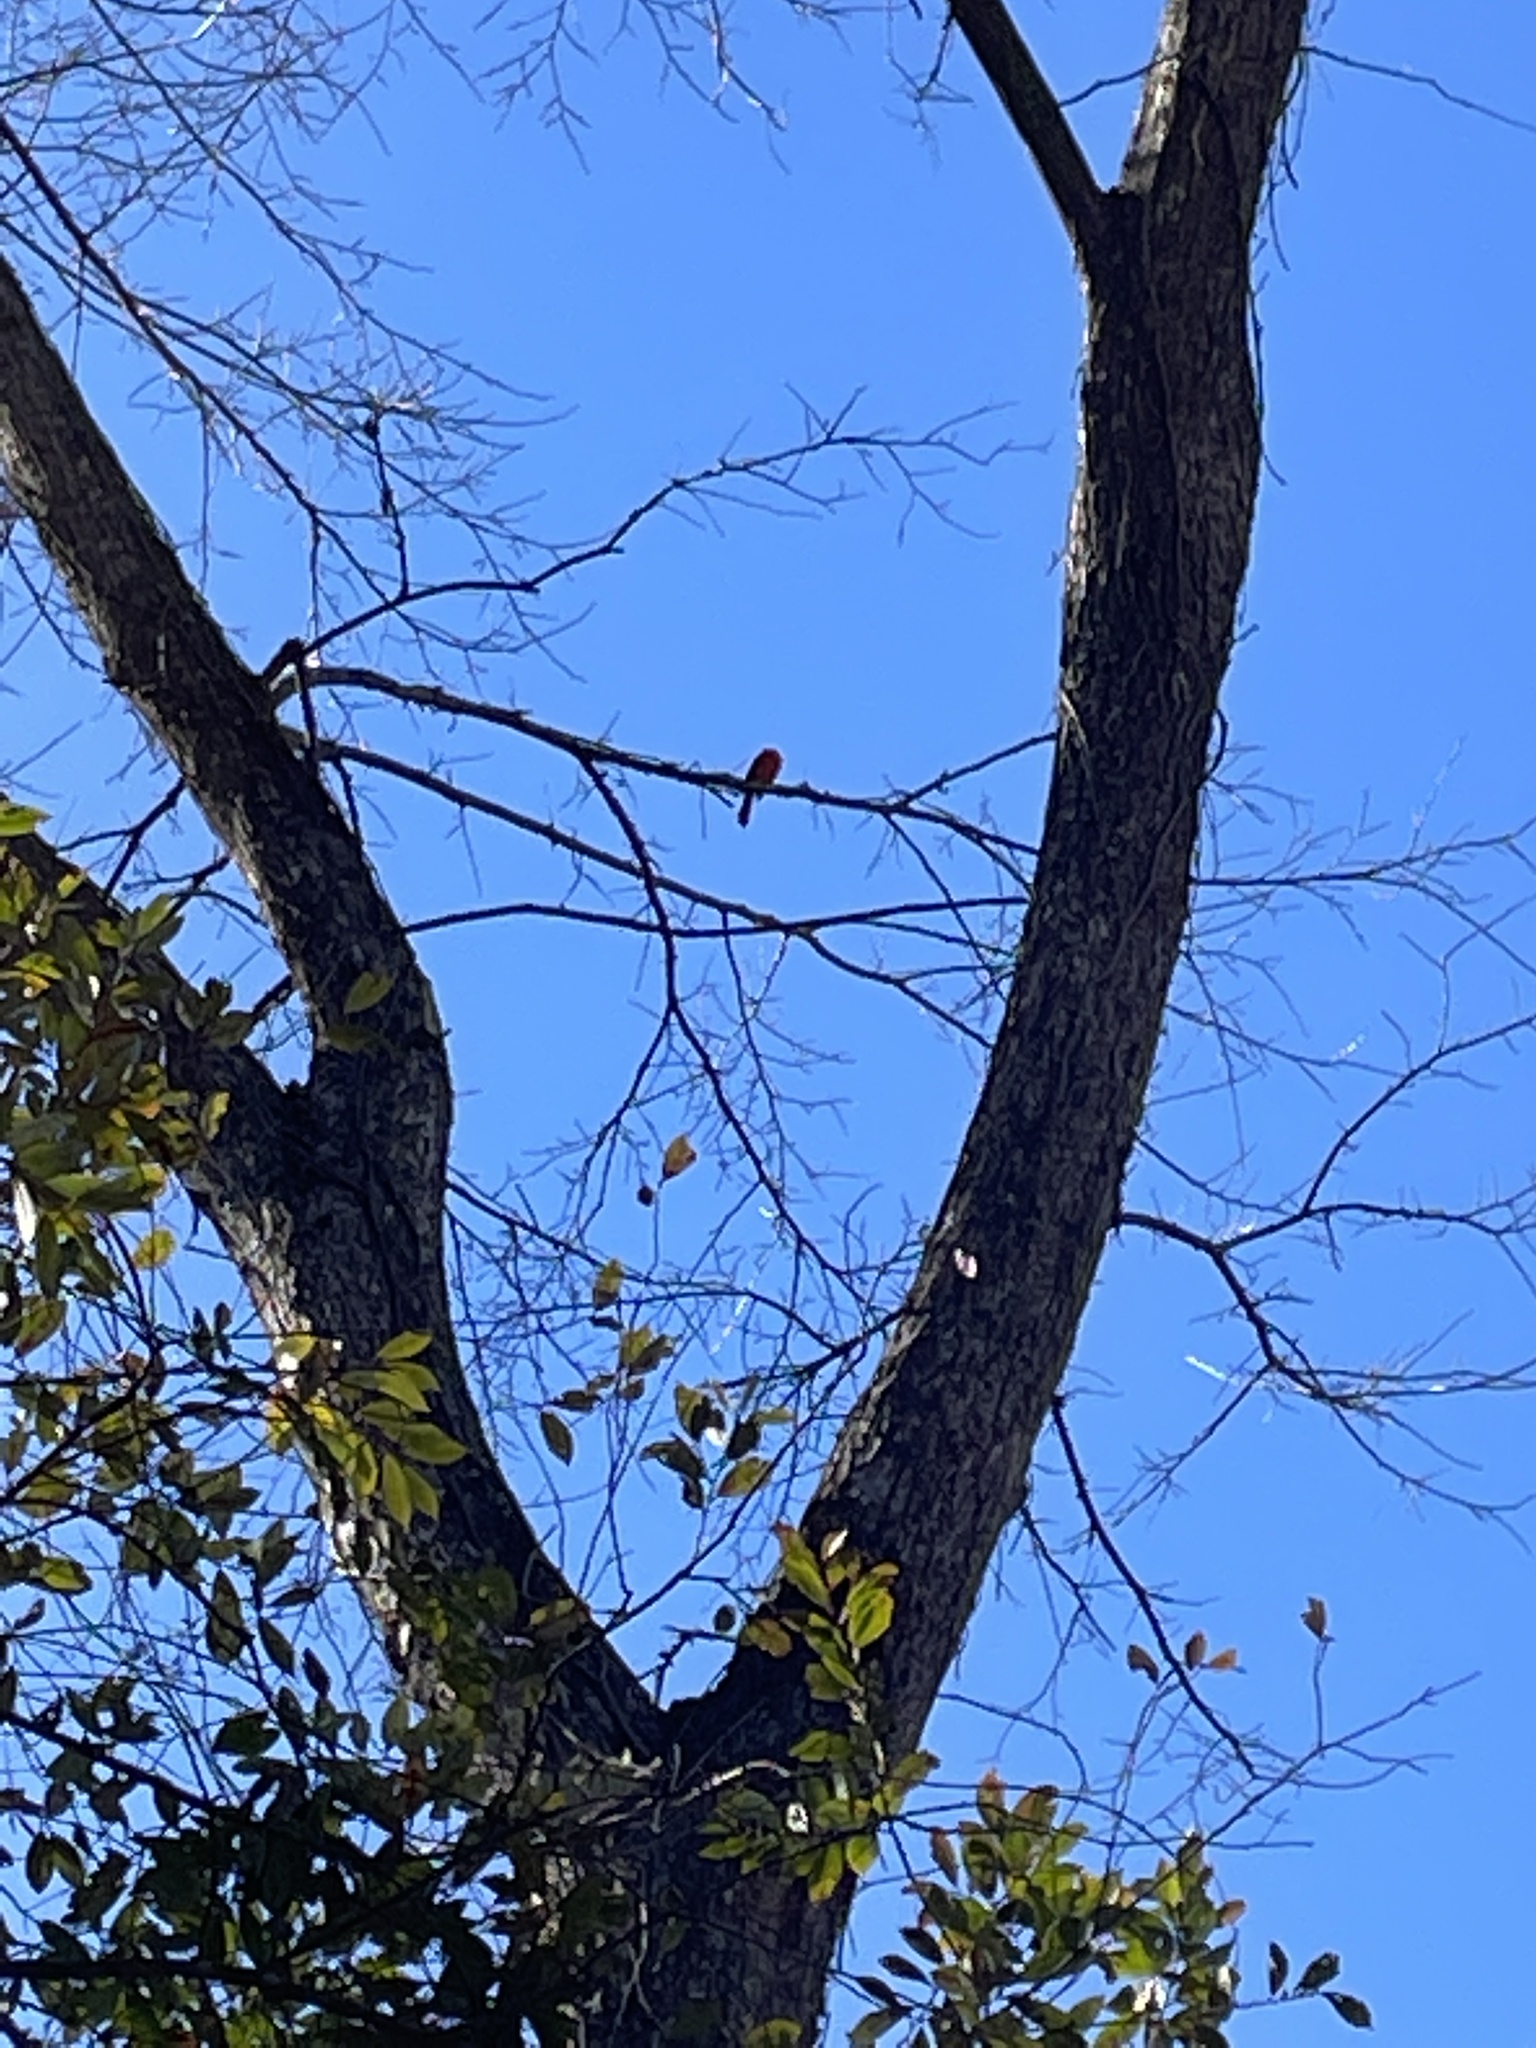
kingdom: Animalia
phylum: Chordata
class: Aves
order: Passeriformes
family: Cardinalidae
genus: Cardinalis
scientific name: Cardinalis cardinalis
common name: Northern cardinal
